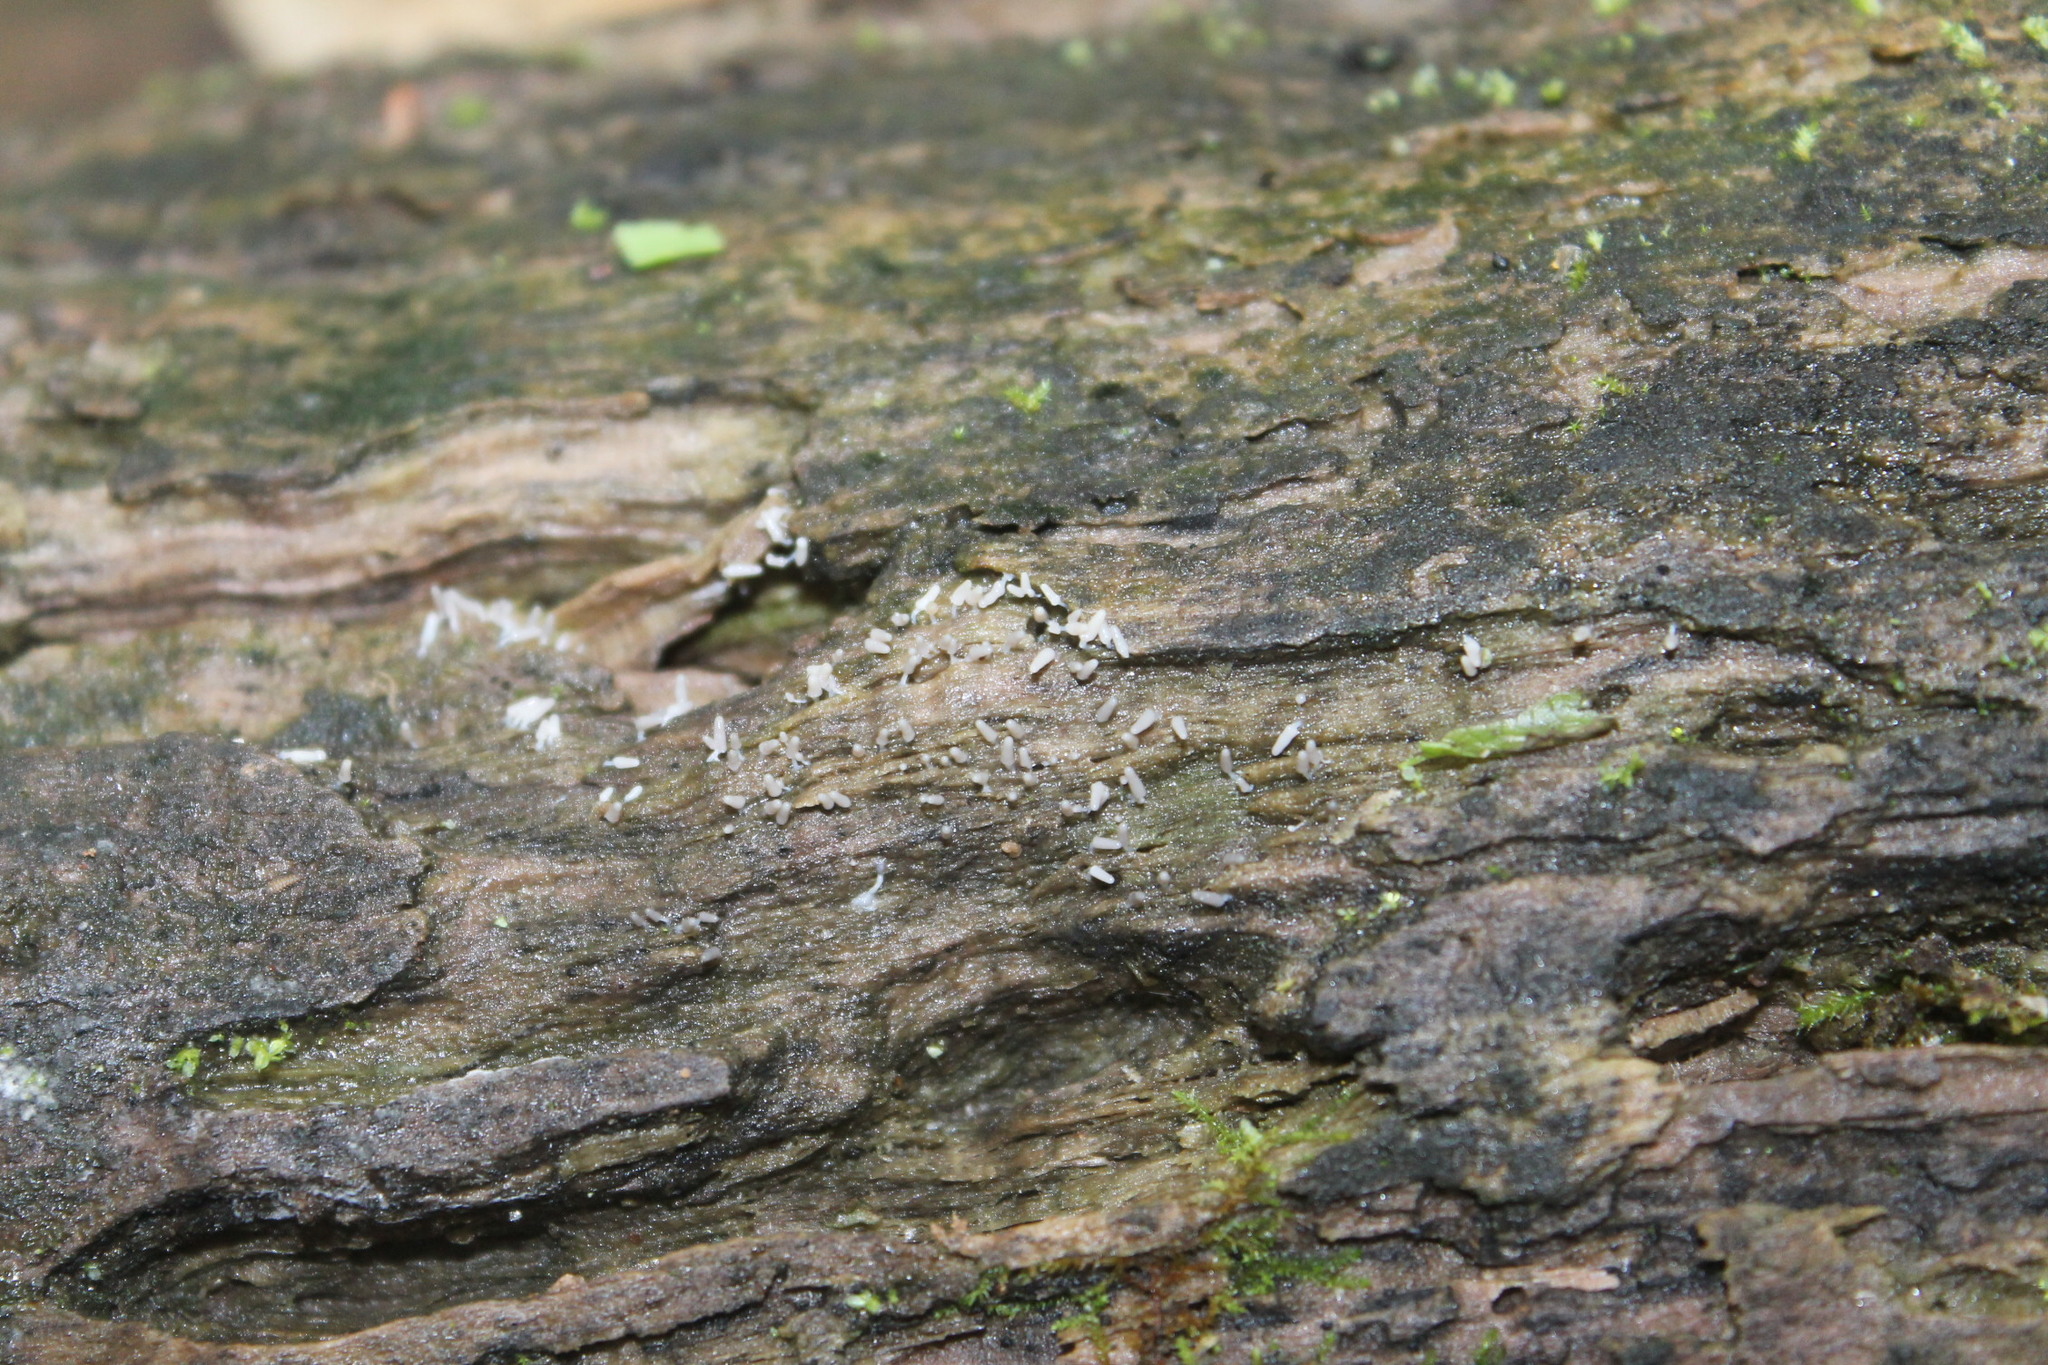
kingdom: Protozoa
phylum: Mycetozoa
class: Myxomycetes
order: Trichiales
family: Arcyriaceae
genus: Arcyria
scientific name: Arcyria cinerea
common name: White carnival candy slime mold
